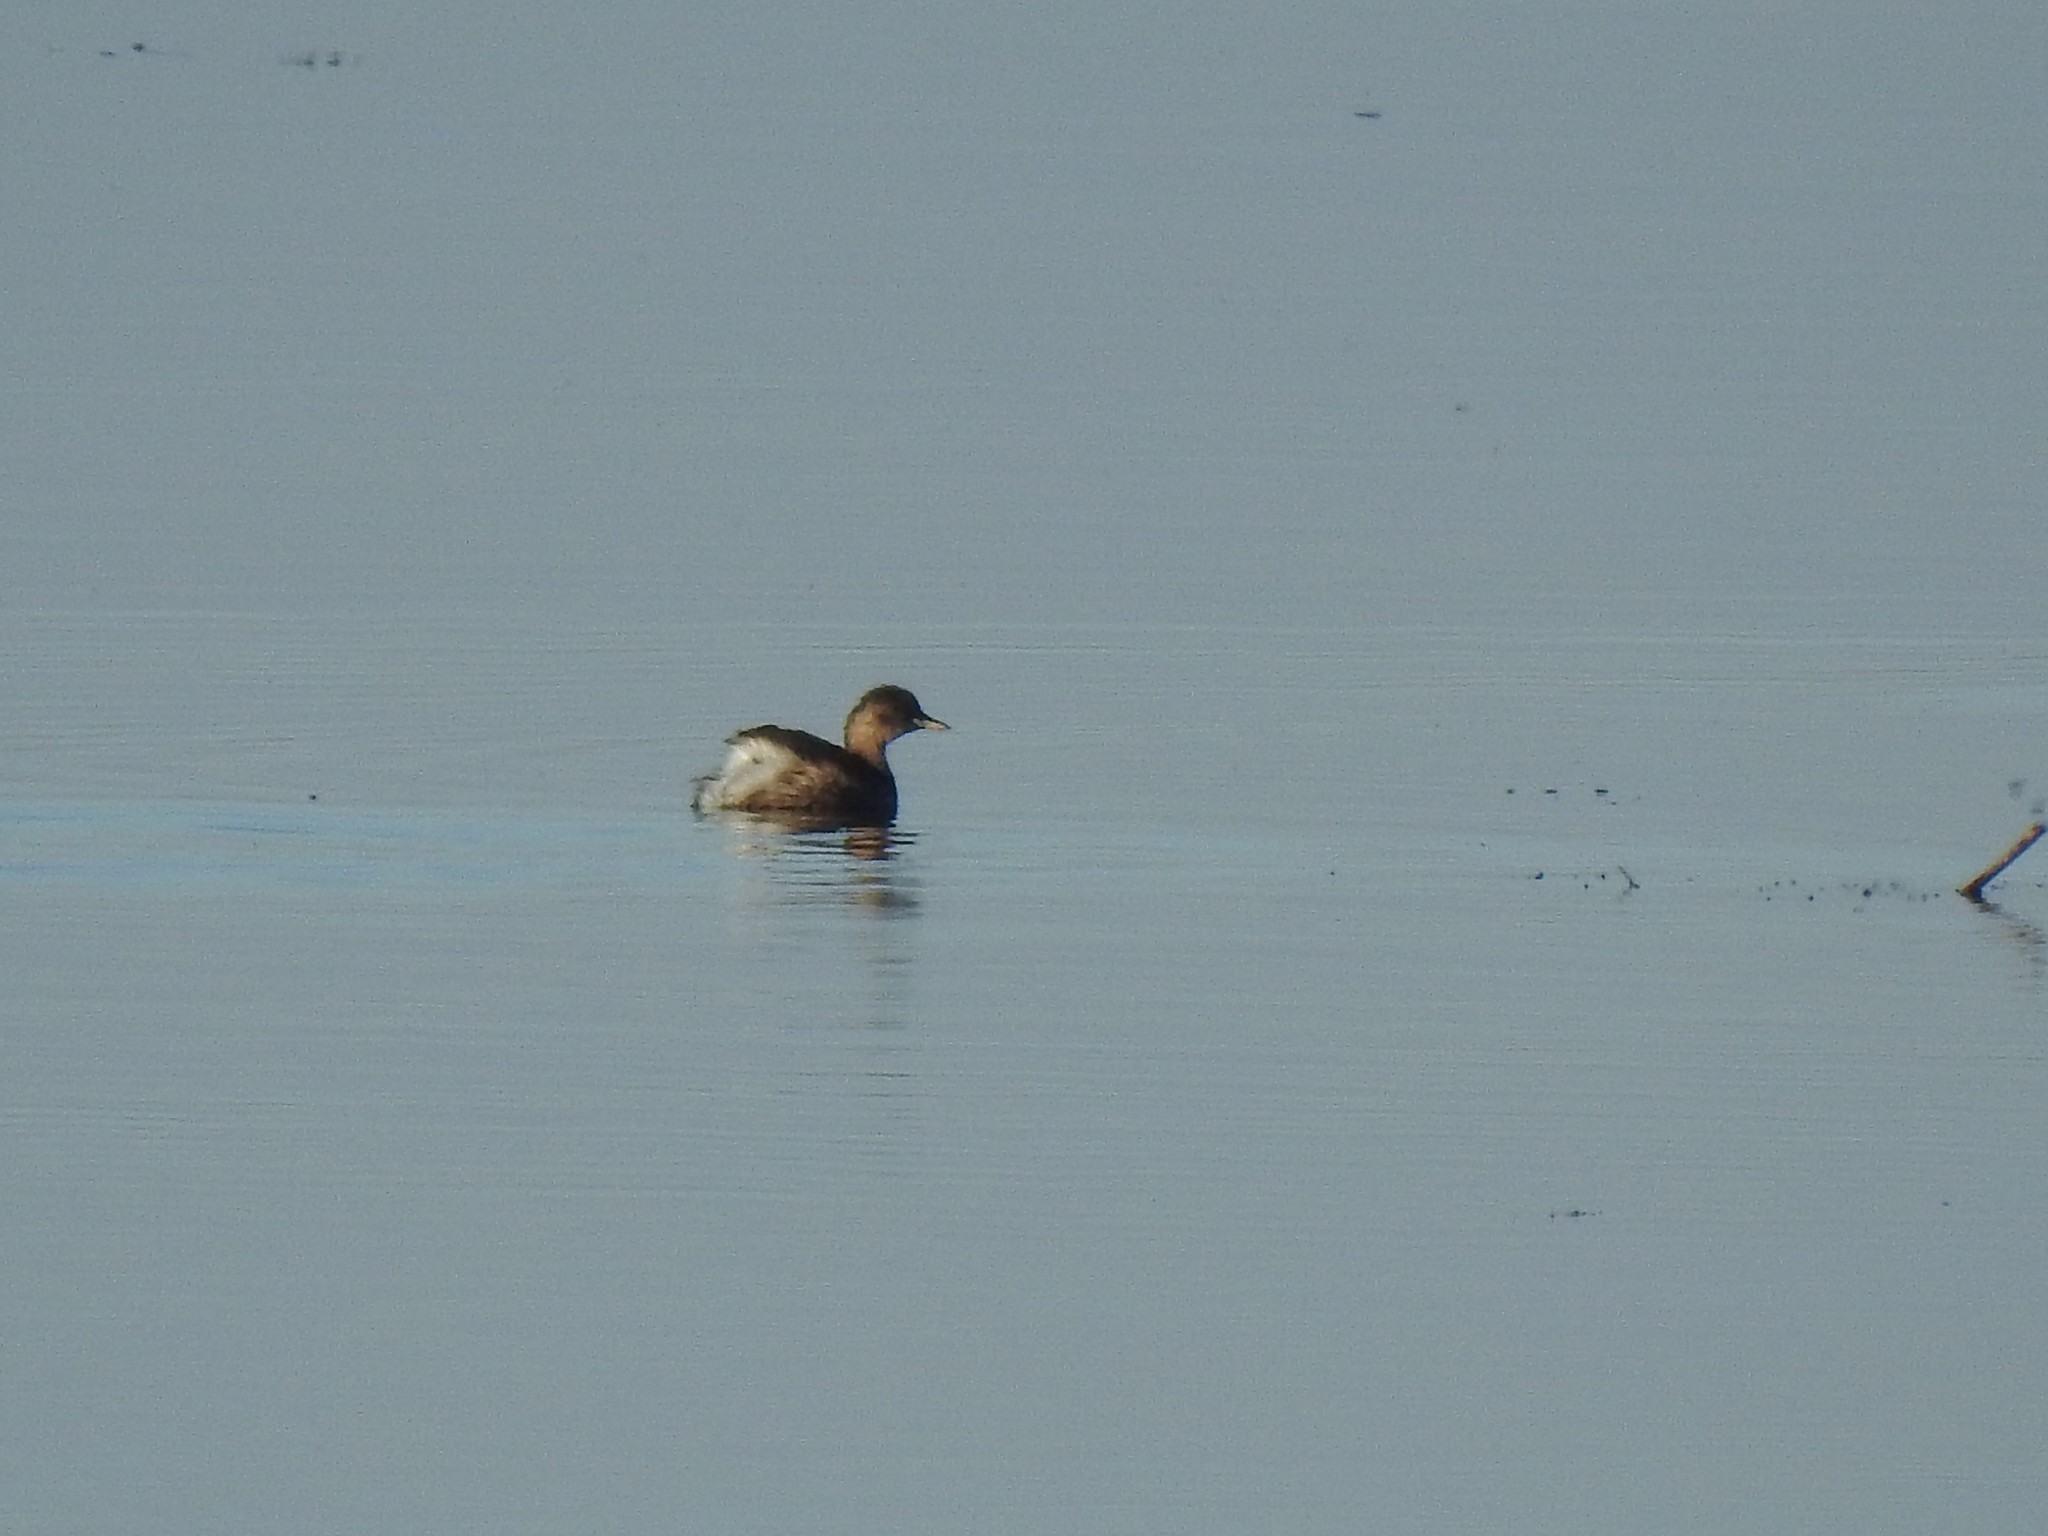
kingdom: Animalia
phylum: Chordata
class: Aves
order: Podicipediformes
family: Podicipedidae
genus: Tachybaptus
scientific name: Tachybaptus ruficollis
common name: Little grebe
